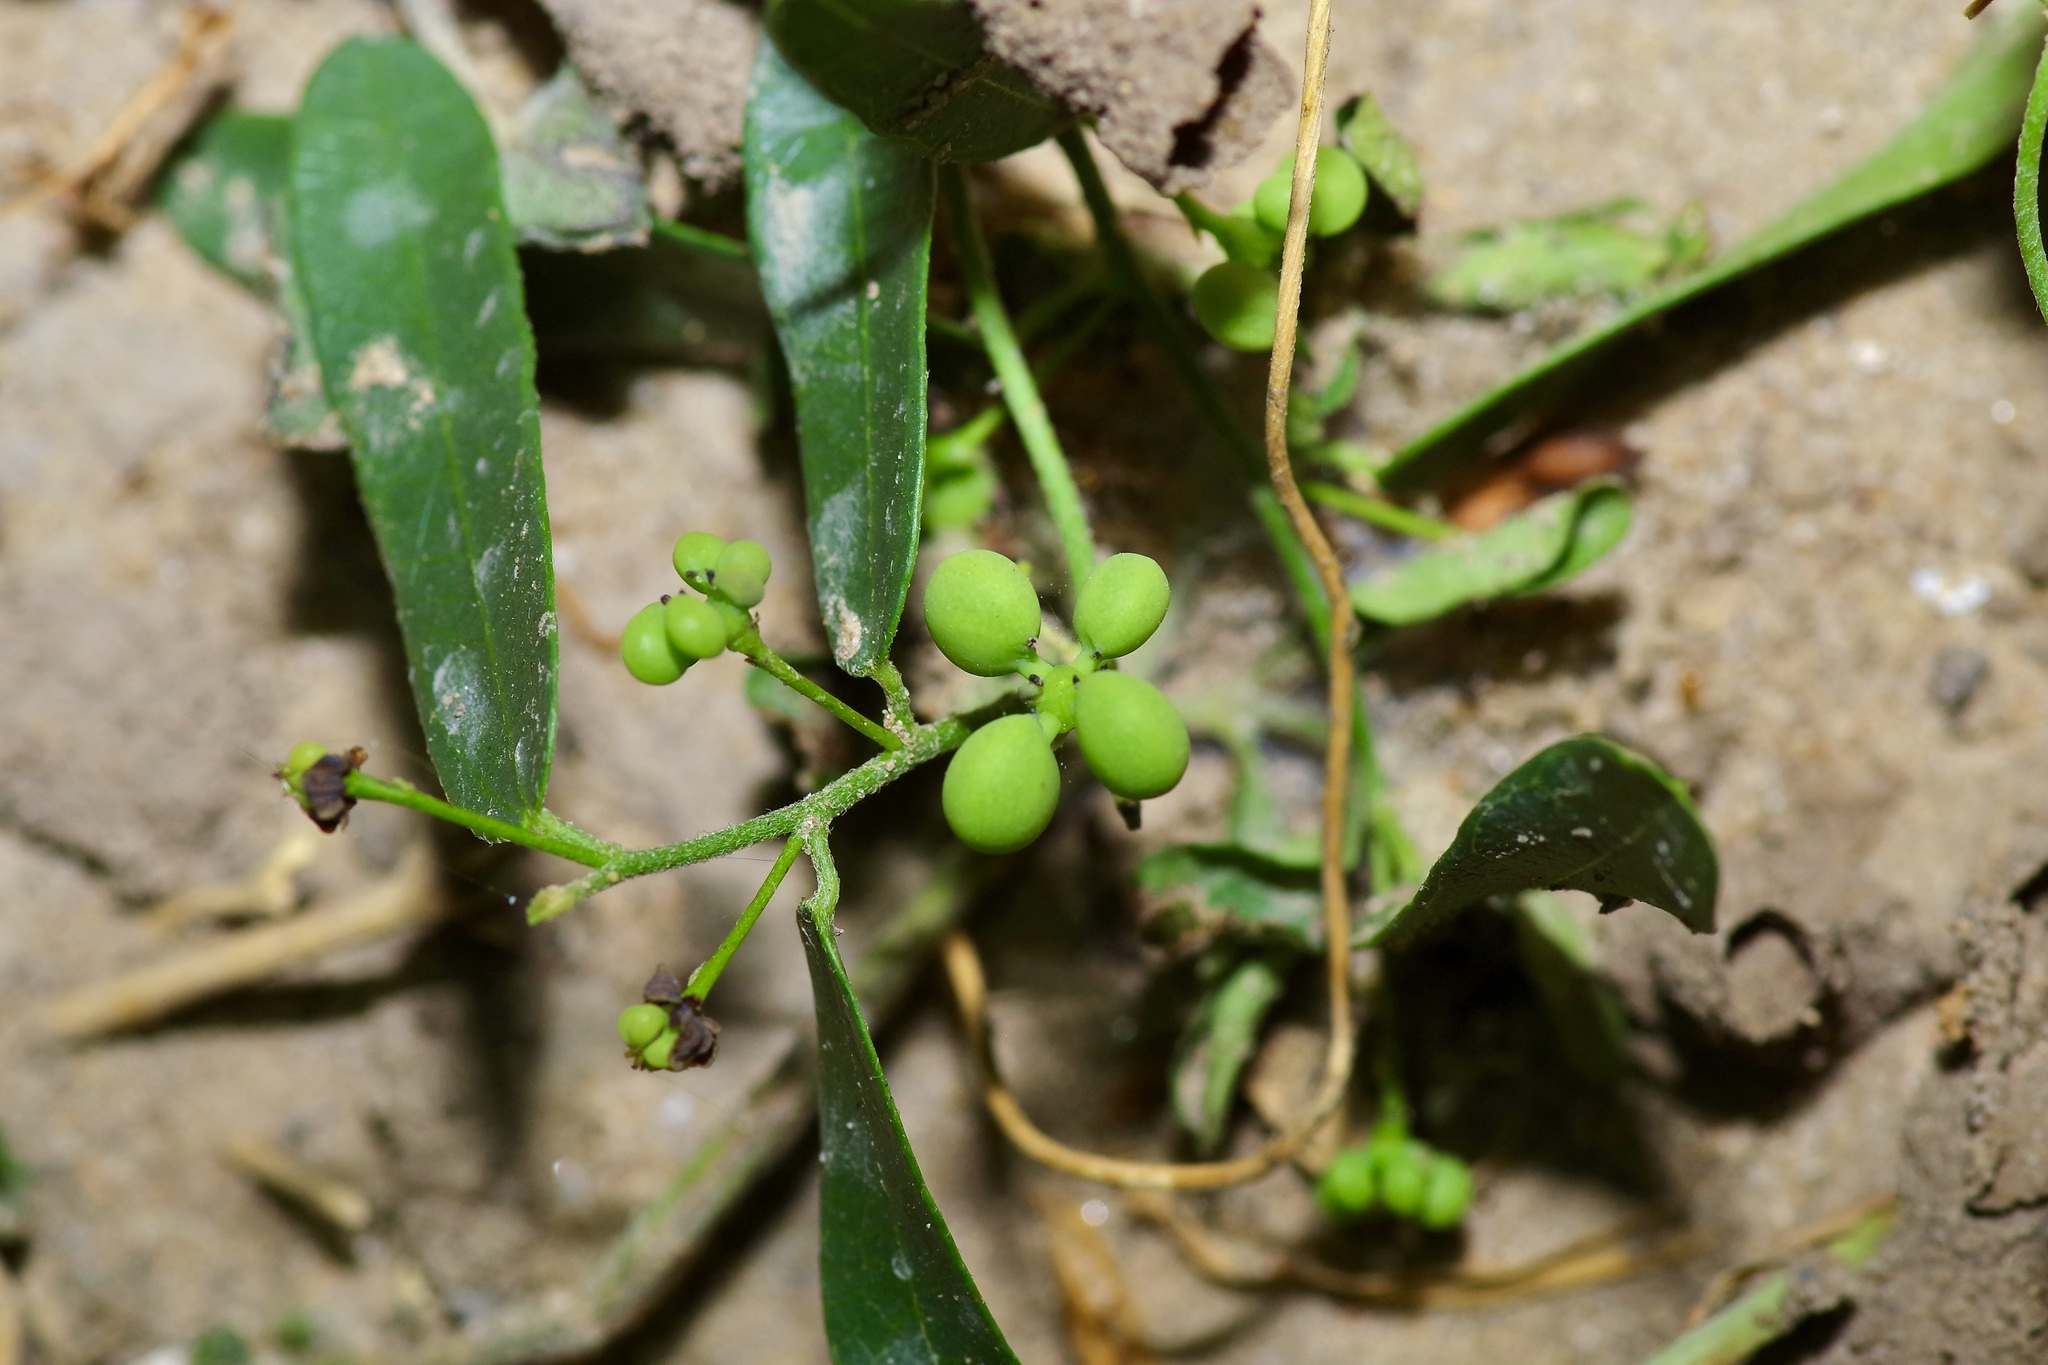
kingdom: Plantae
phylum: Tracheophyta
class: Magnoliopsida
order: Ranunculales
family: Menispermaceae
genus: Cocculus
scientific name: Cocculus diversifolius
